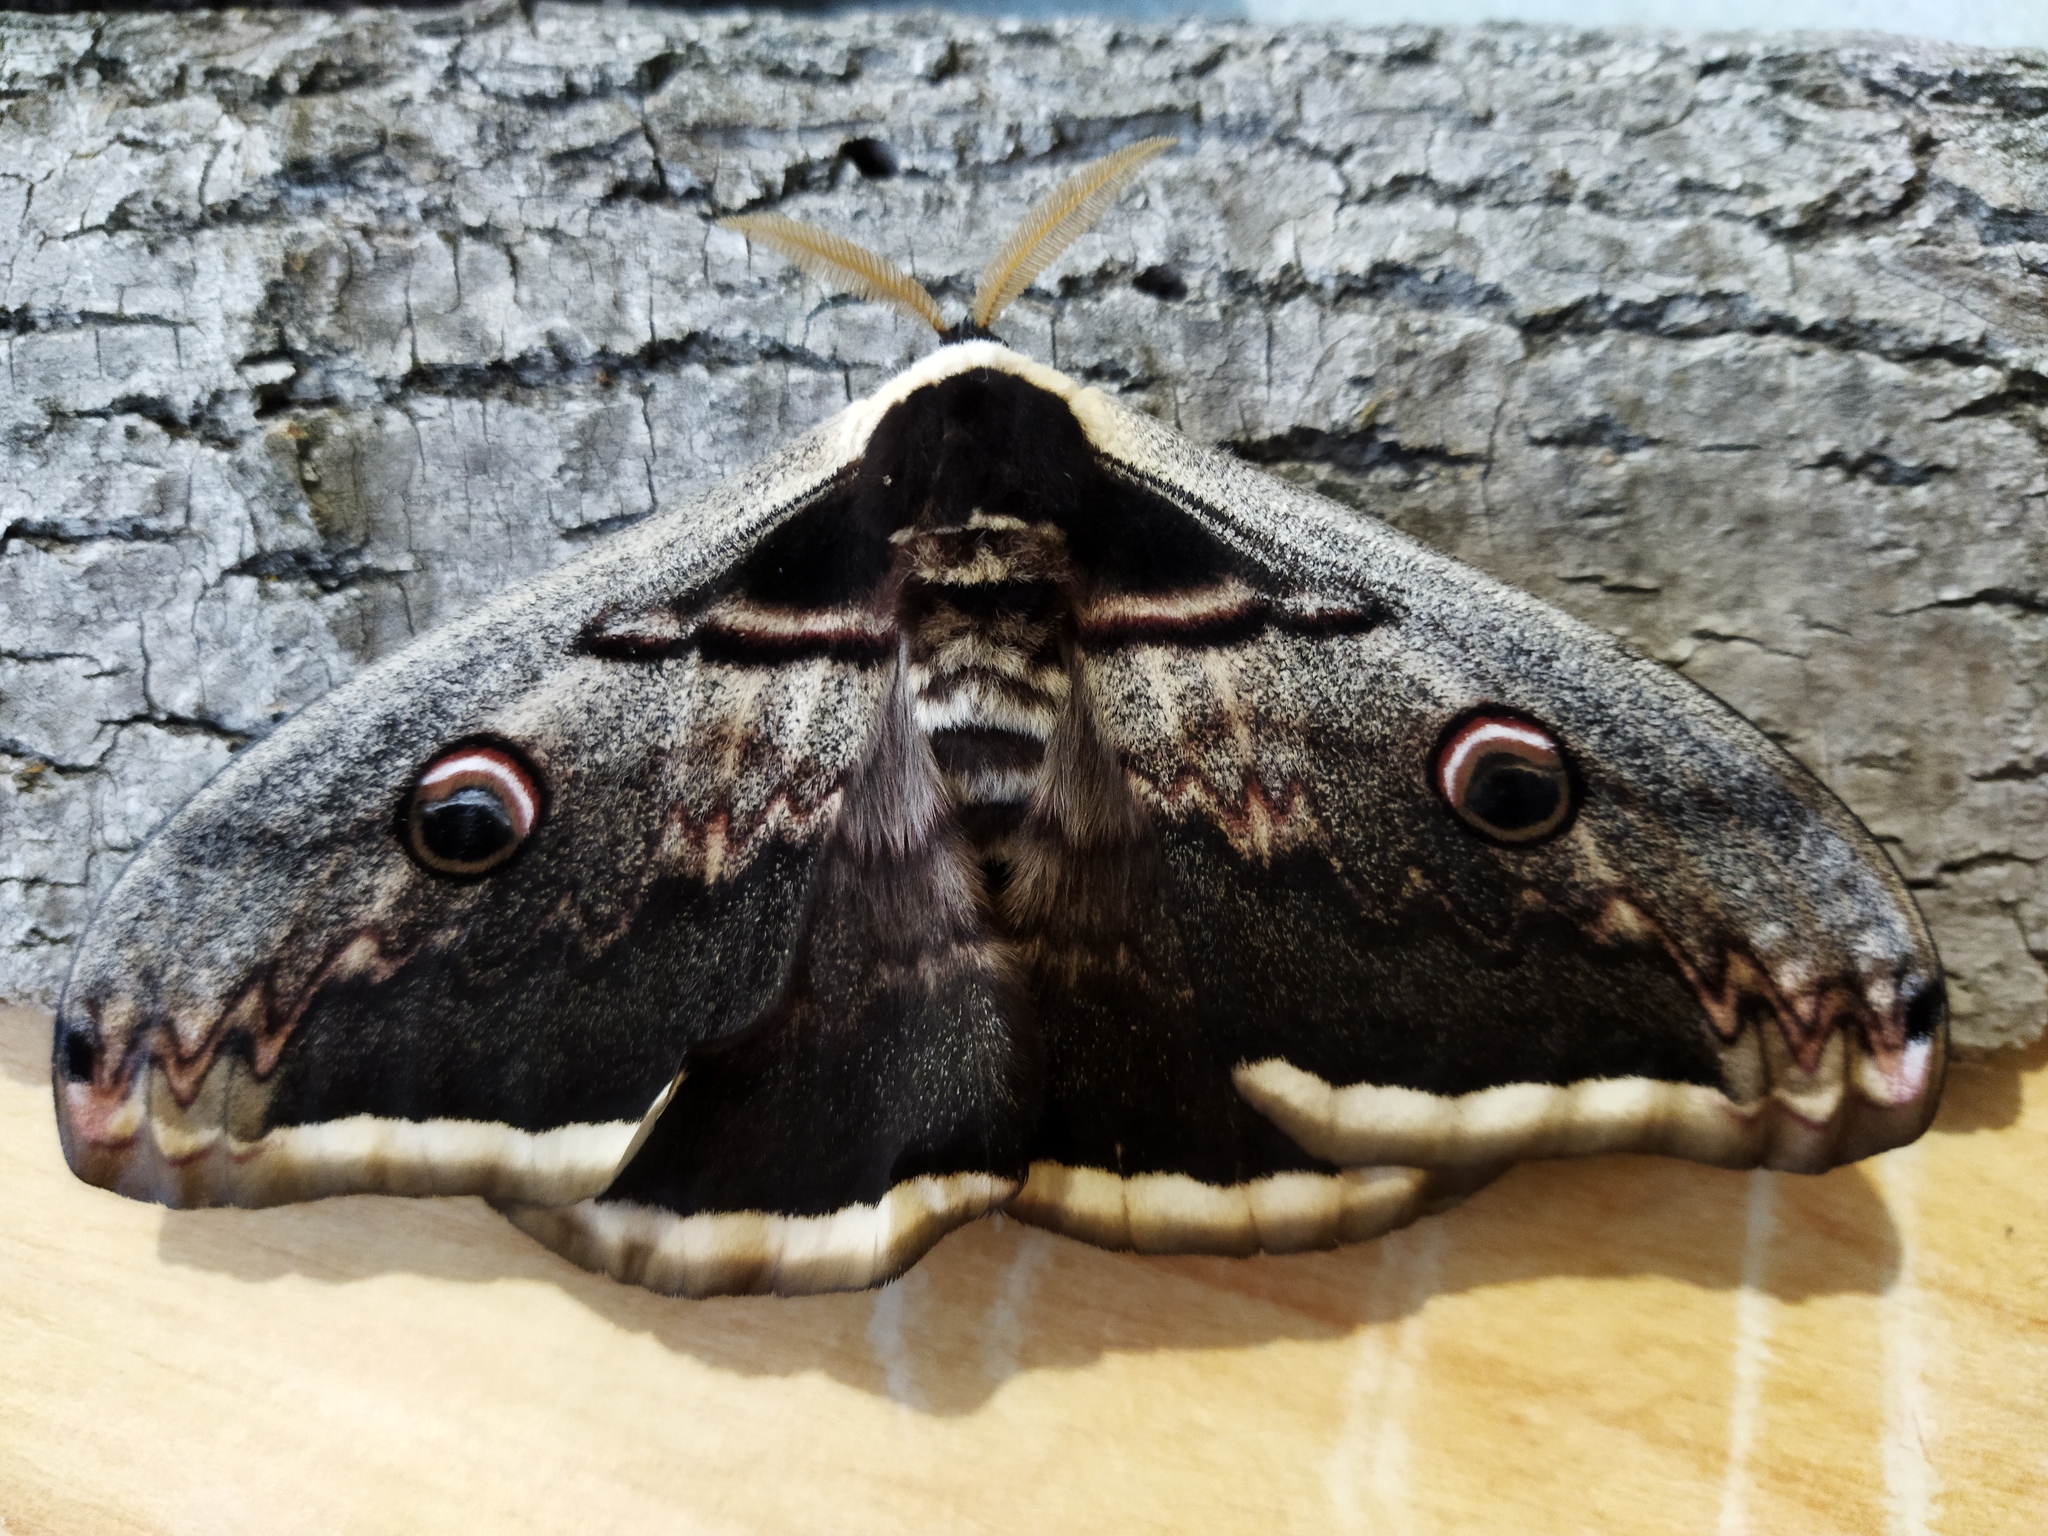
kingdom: Animalia
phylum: Arthropoda
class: Insecta
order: Lepidoptera
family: Saturniidae
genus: Saturnia
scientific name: Saturnia pyri
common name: Great peacock moth
